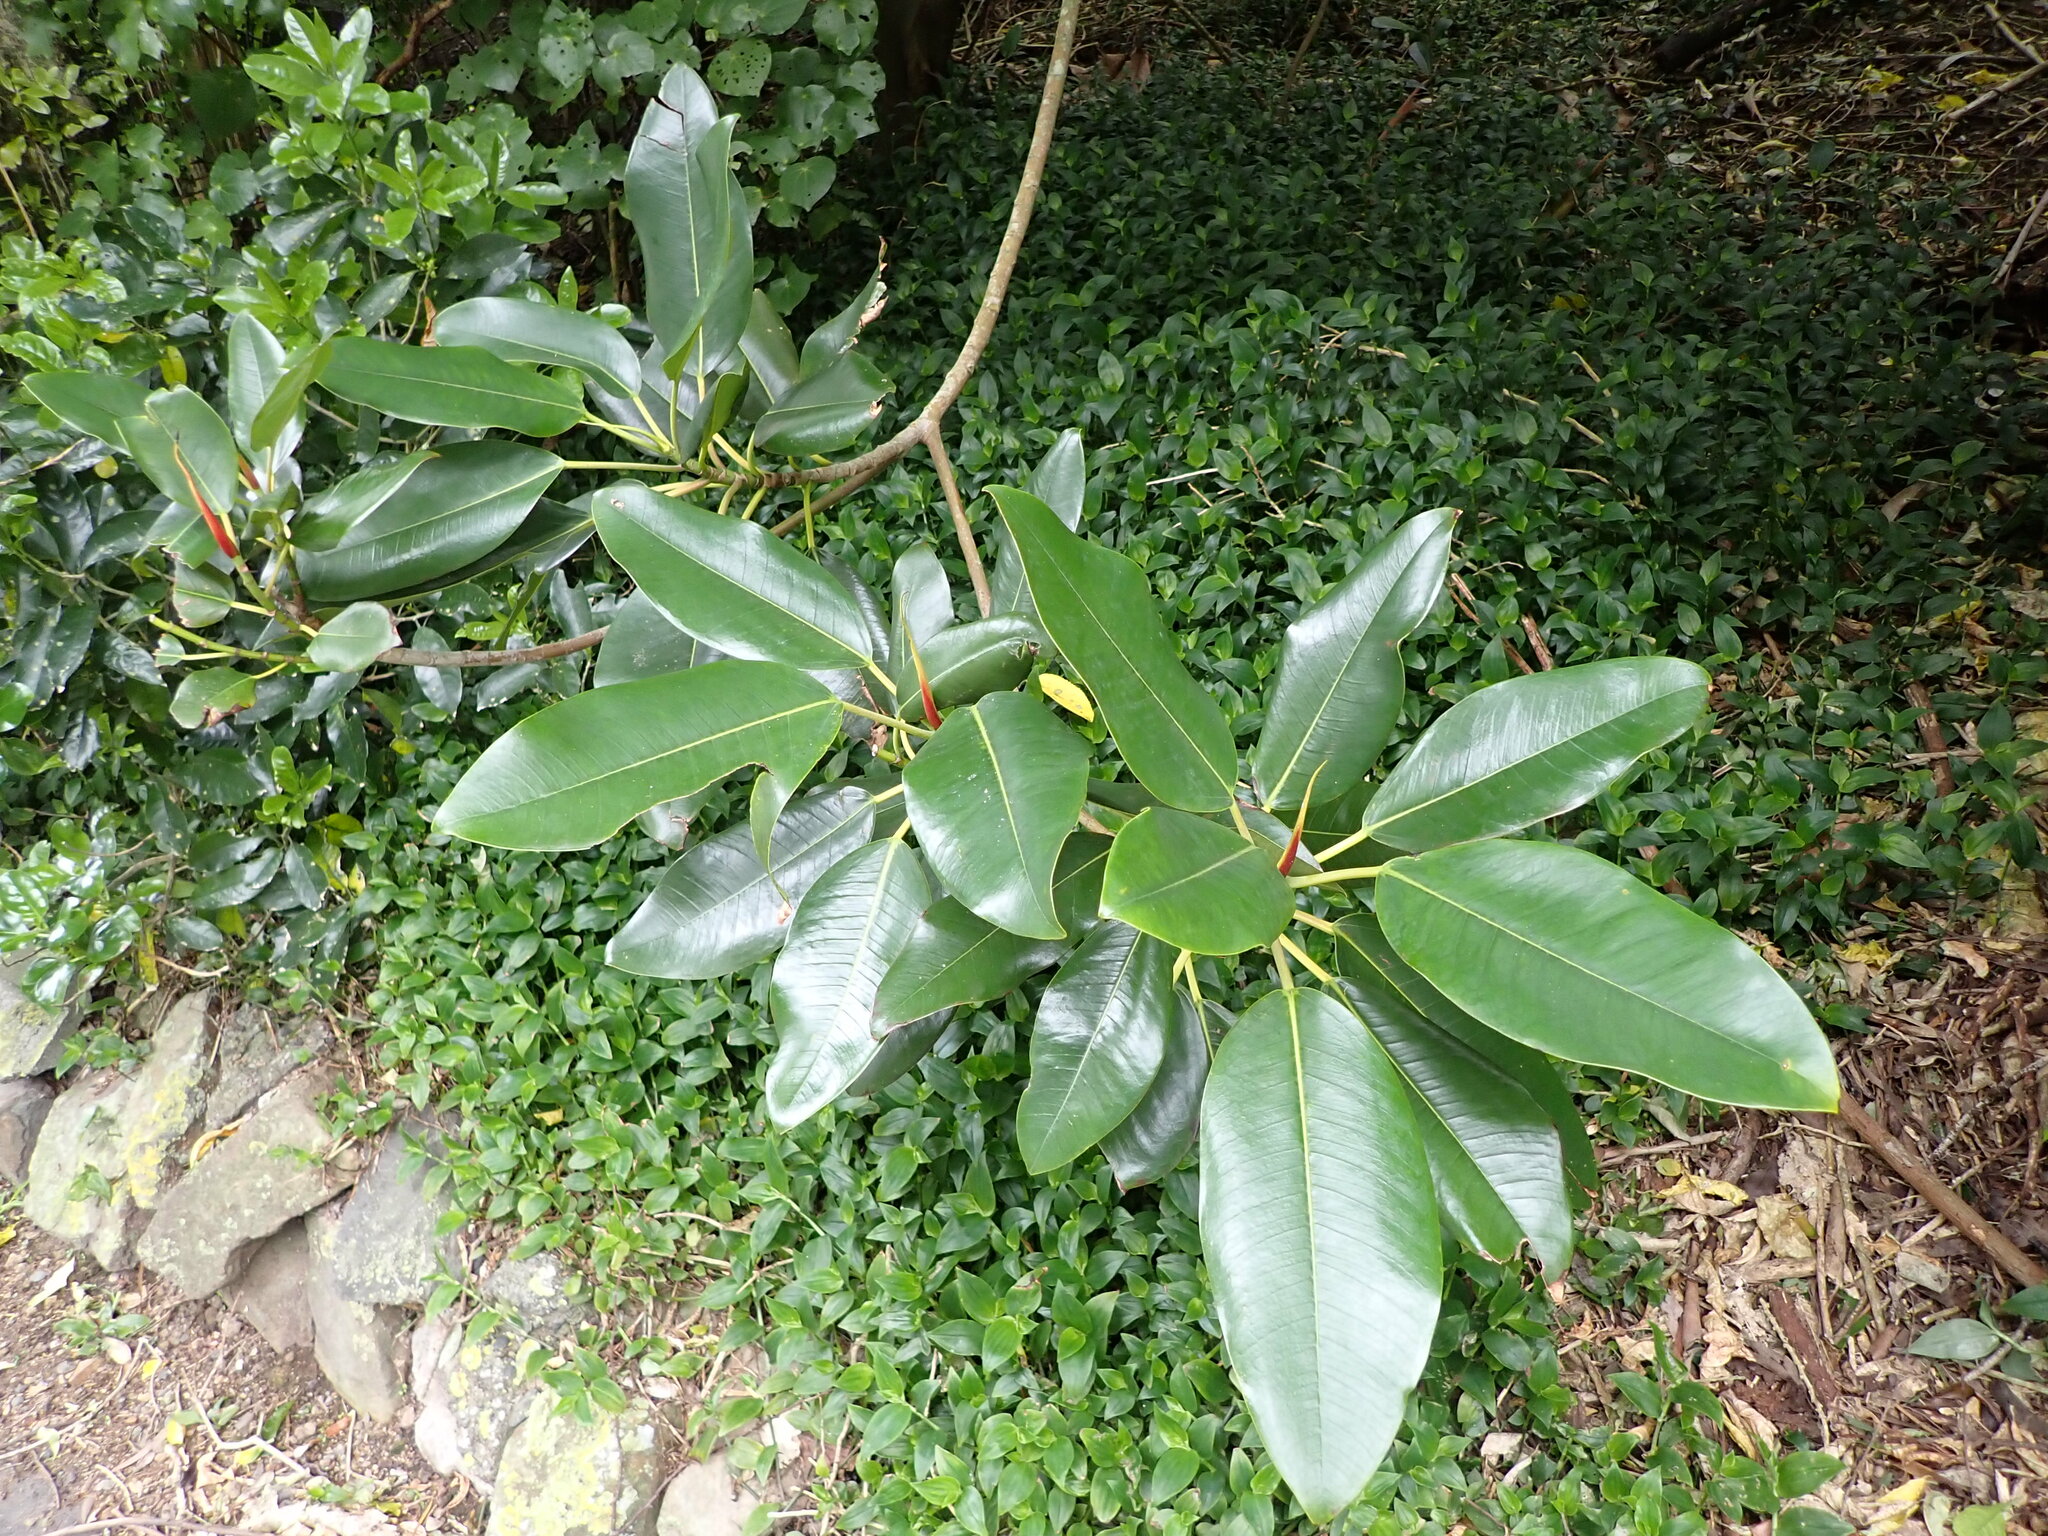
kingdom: Plantae
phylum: Tracheophyta
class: Magnoliopsida
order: Rosales
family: Moraceae
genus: Ficus
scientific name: Ficus macrophylla
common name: Moreton bay fig
